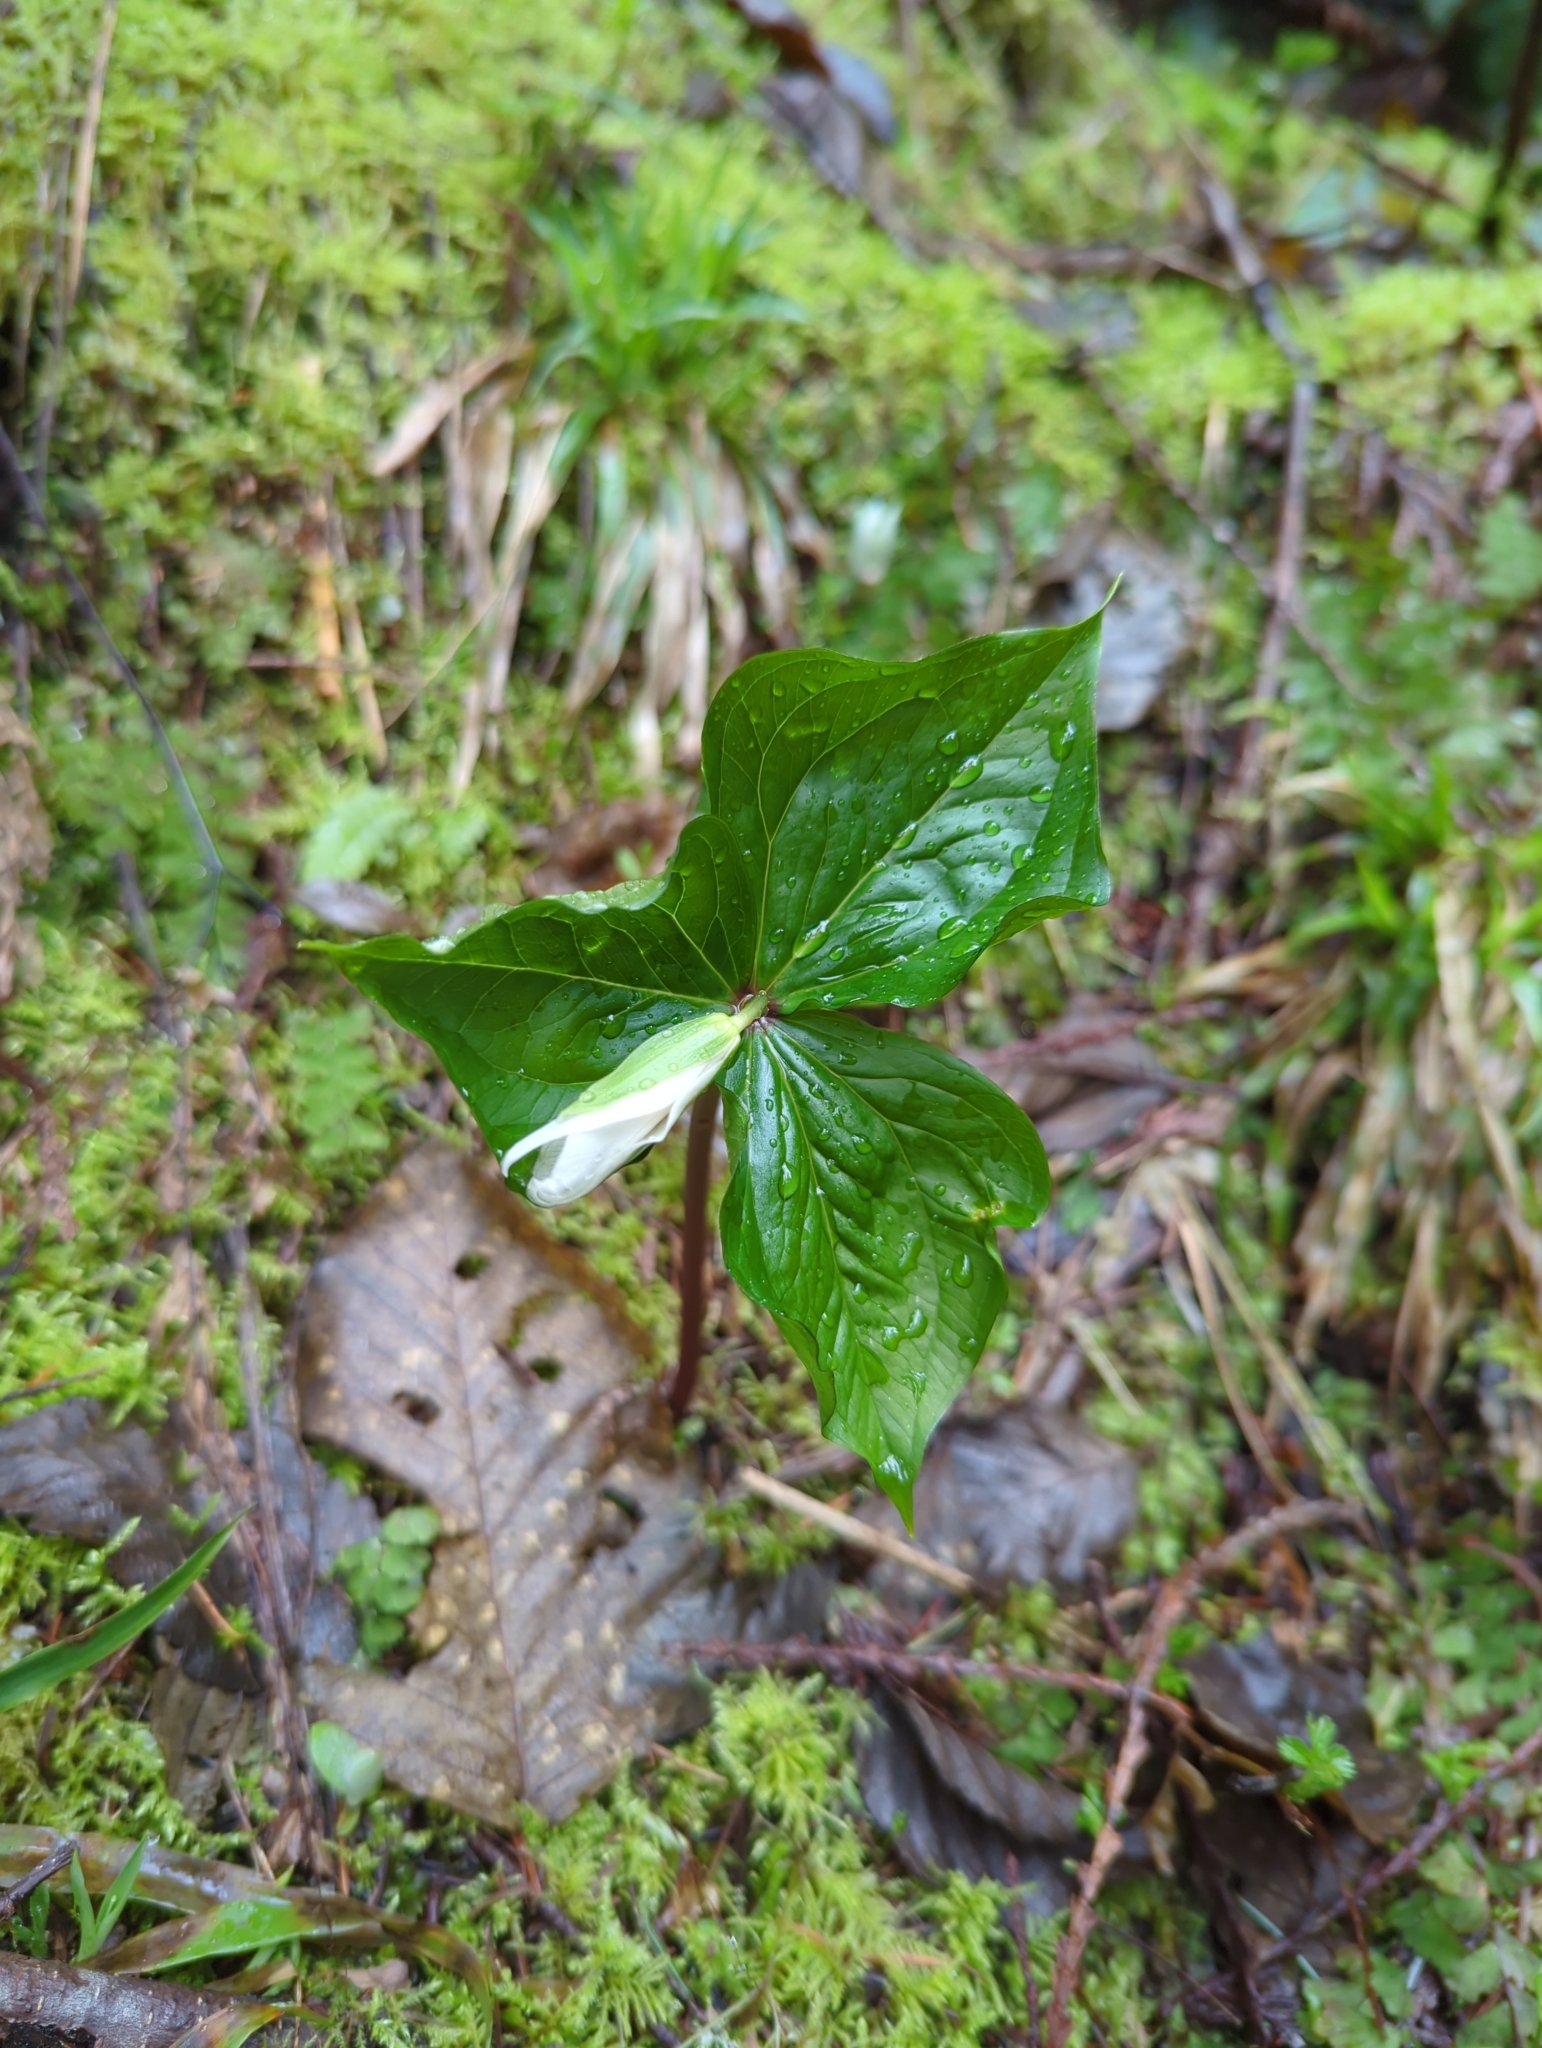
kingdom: Plantae
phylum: Tracheophyta
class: Liliopsida
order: Liliales
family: Melanthiaceae
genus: Trillium
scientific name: Trillium ovatum
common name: Pacific trillium
